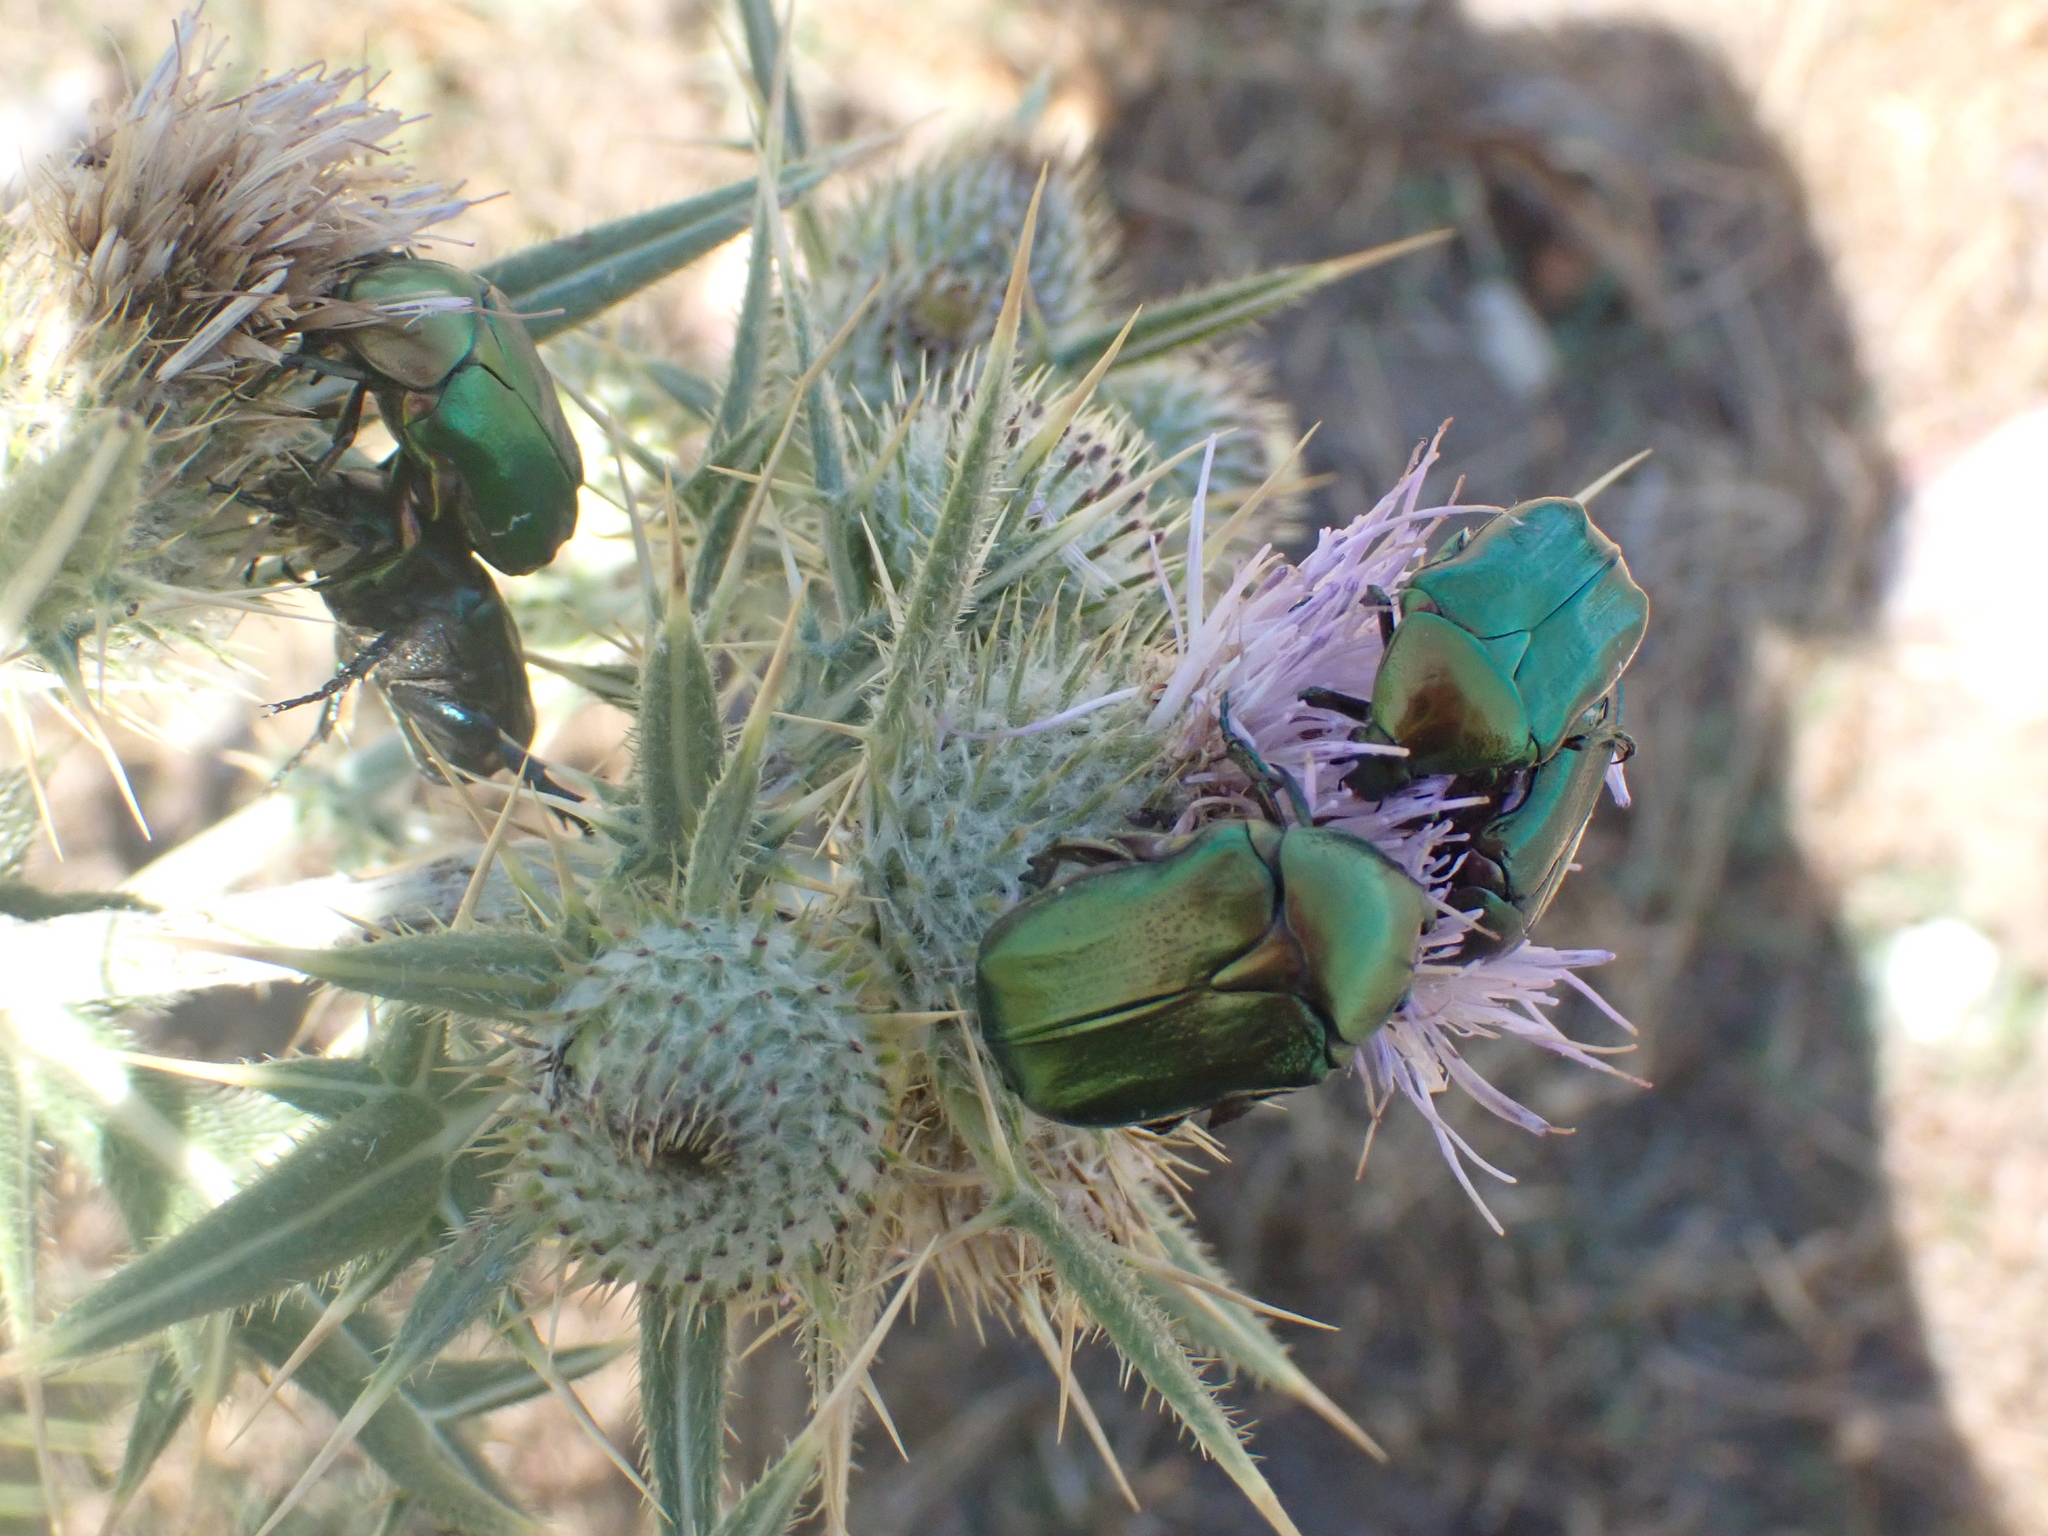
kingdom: Animalia
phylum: Arthropoda
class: Insecta
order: Coleoptera
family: Scarabaeidae
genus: Cetonia
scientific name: Cetonia aurata
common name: Rose chafer
